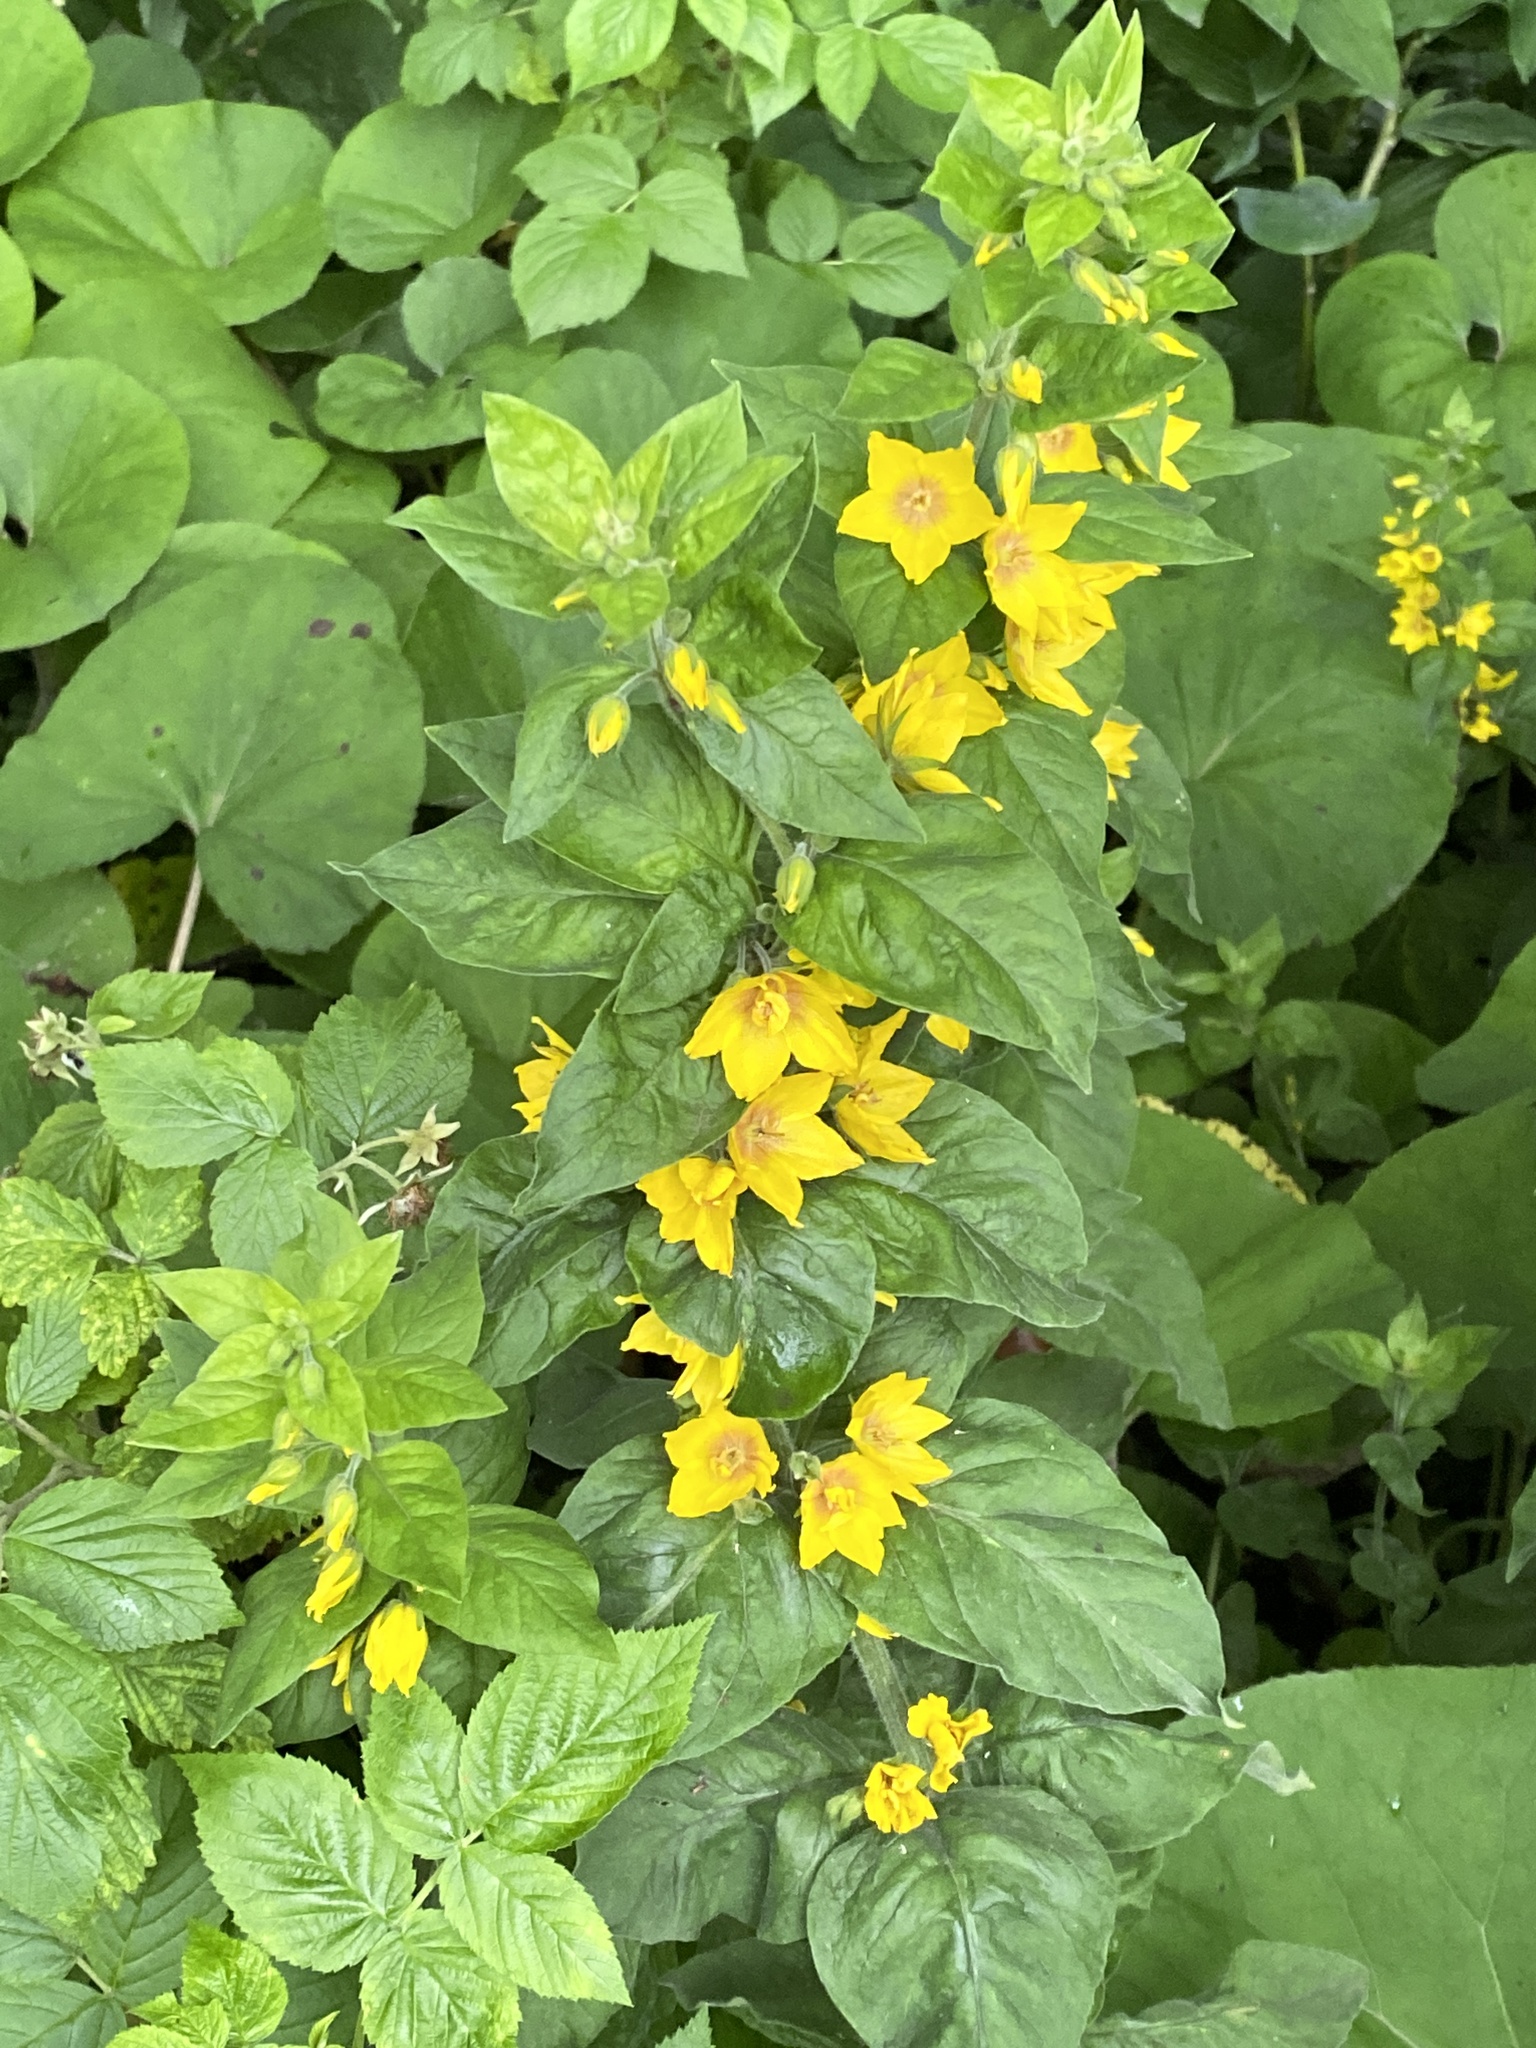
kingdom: Plantae
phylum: Tracheophyta
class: Magnoliopsida
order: Ericales
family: Primulaceae
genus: Lysimachia
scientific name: Lysimachia punctata
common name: Dotted loosestrife
